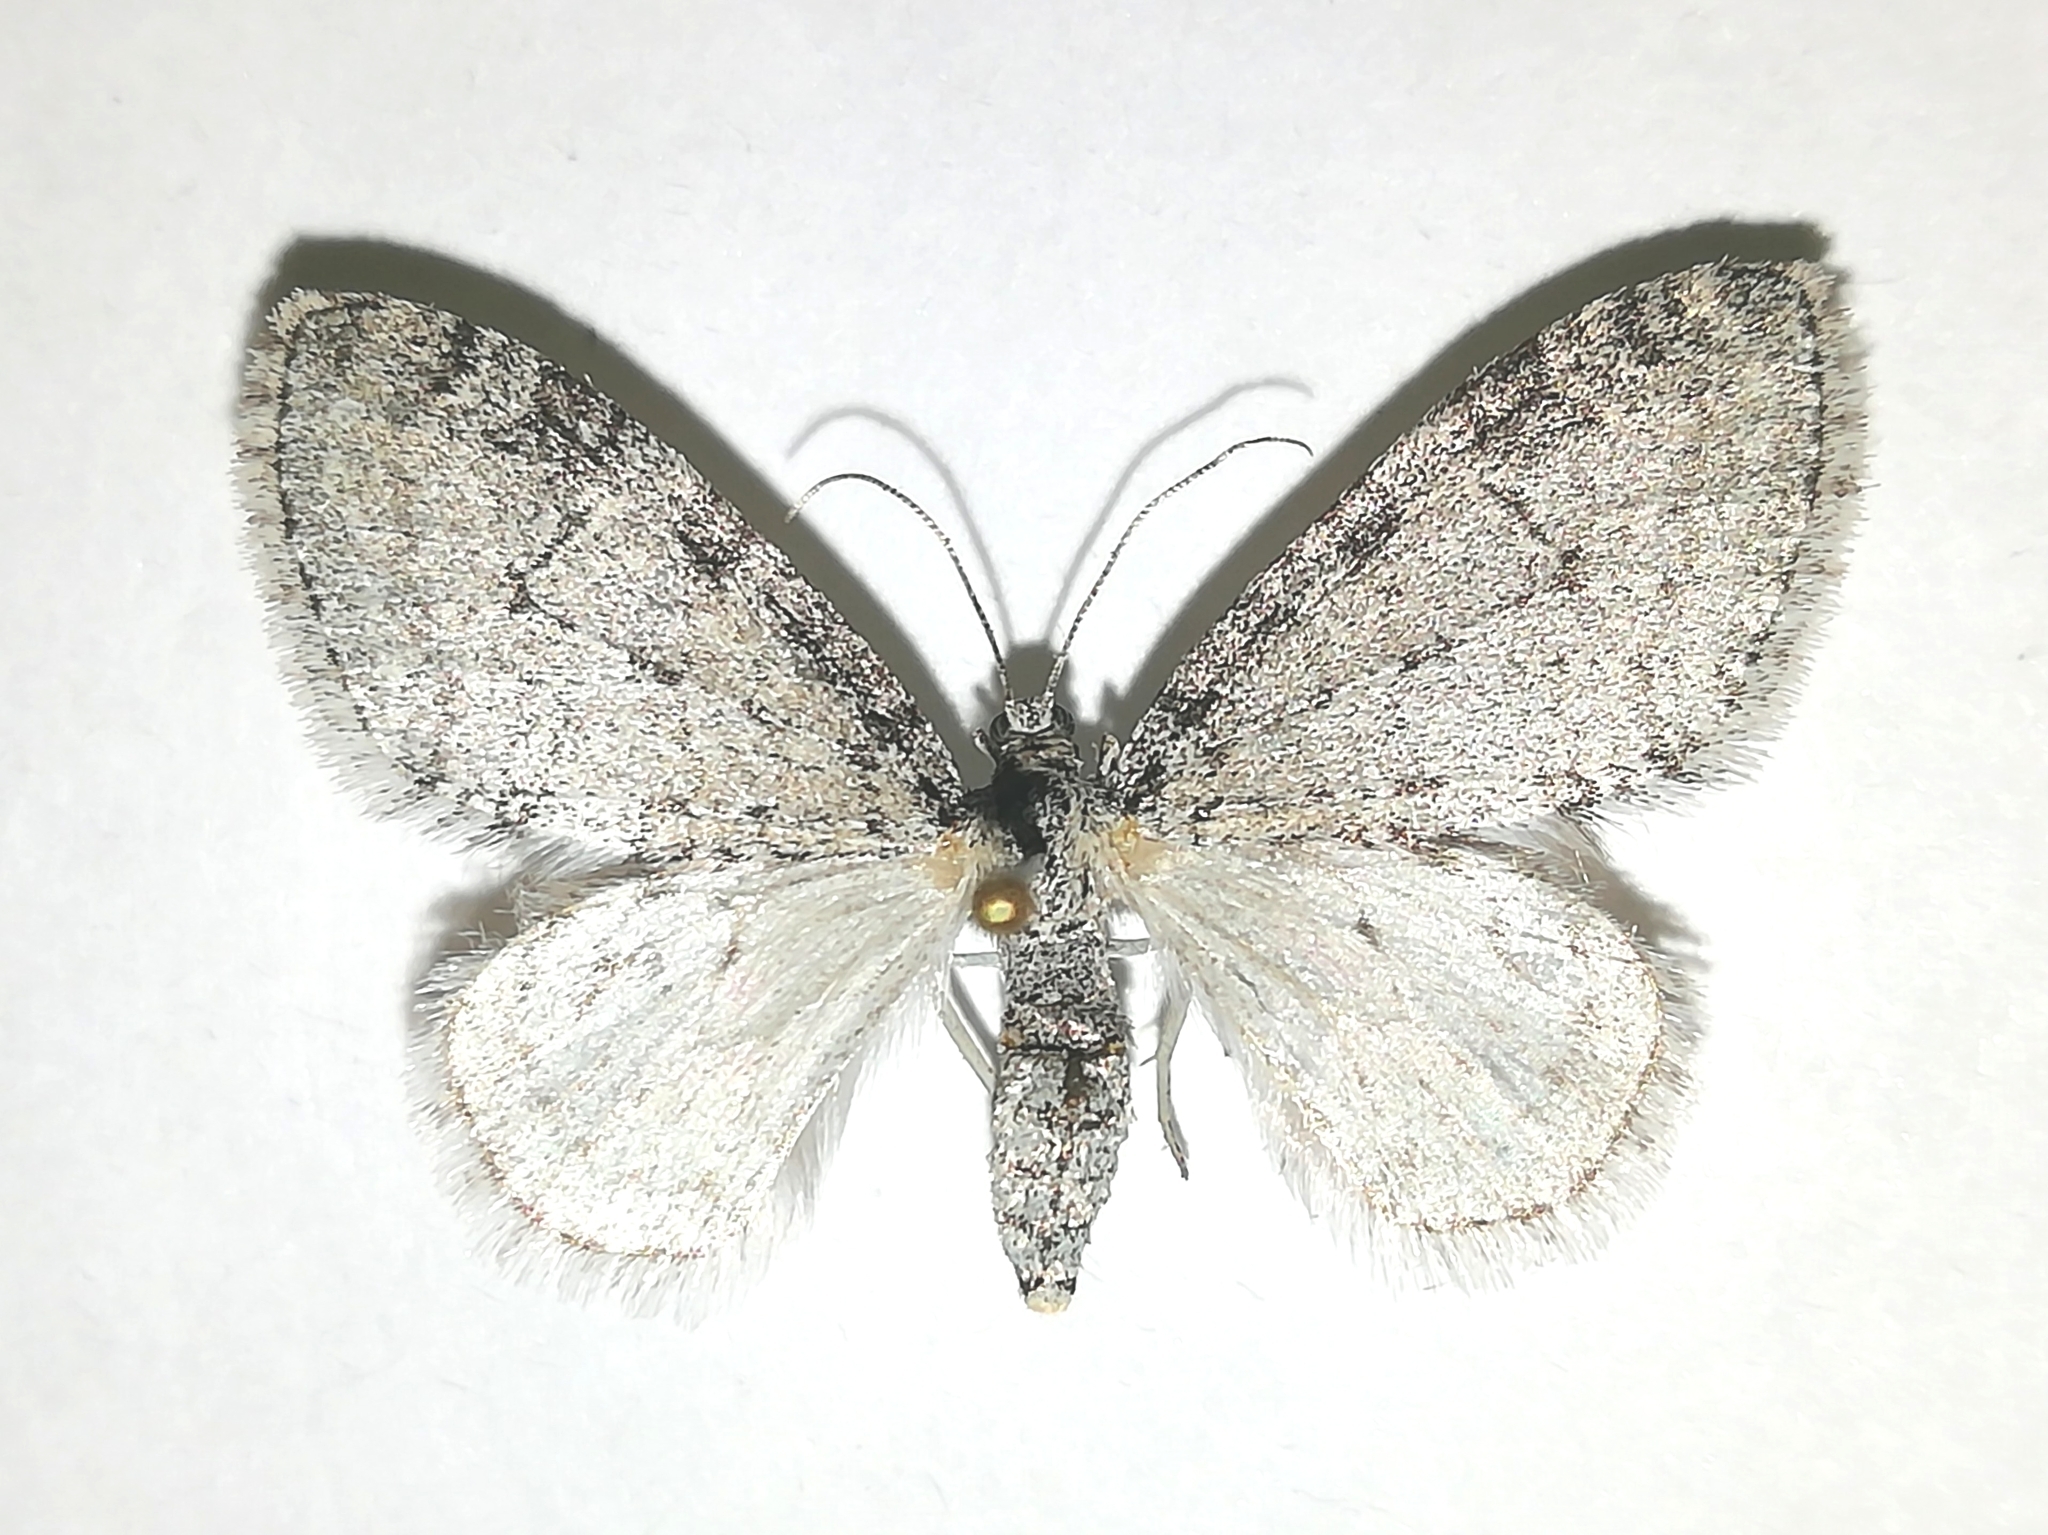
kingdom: Animalia
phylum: Arthropoda
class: Insecta
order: Lepidoptera
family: Geometridae
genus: Trichopteryx
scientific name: Trichopteryx carpinata
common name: Early tooth-striped
